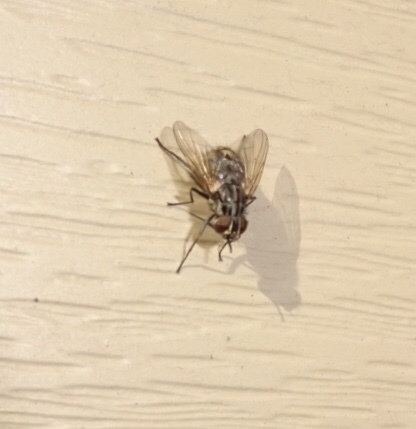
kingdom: Animalia
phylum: Arthropoda
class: Insecta
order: Diptera
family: Muscidae
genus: Stomoxys
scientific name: Stomoxys calcitrans
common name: Stable fly
